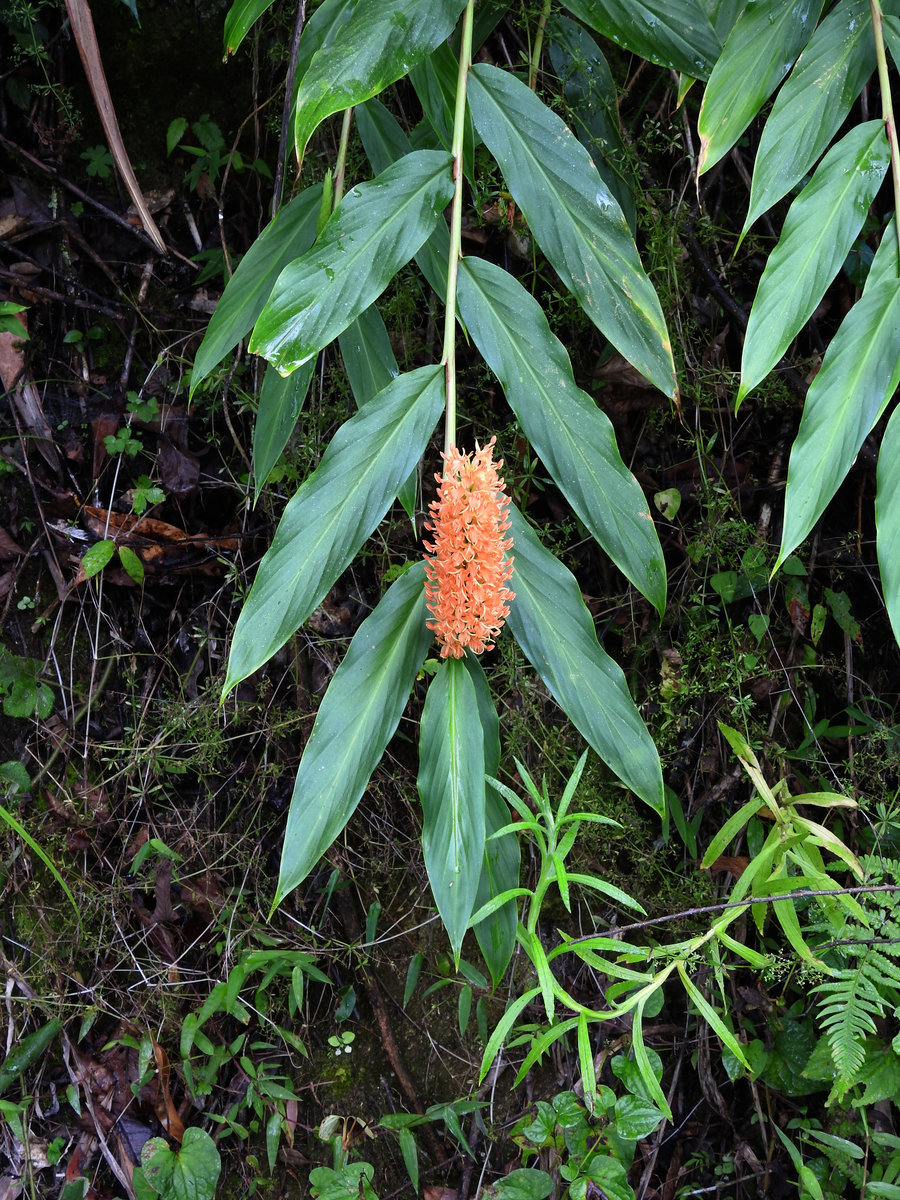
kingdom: Plantae
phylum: Tracheophyta
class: Liliopsida
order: Zingiberales
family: Zingiberaceae
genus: Hedychium
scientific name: Hedychium densiflorum
